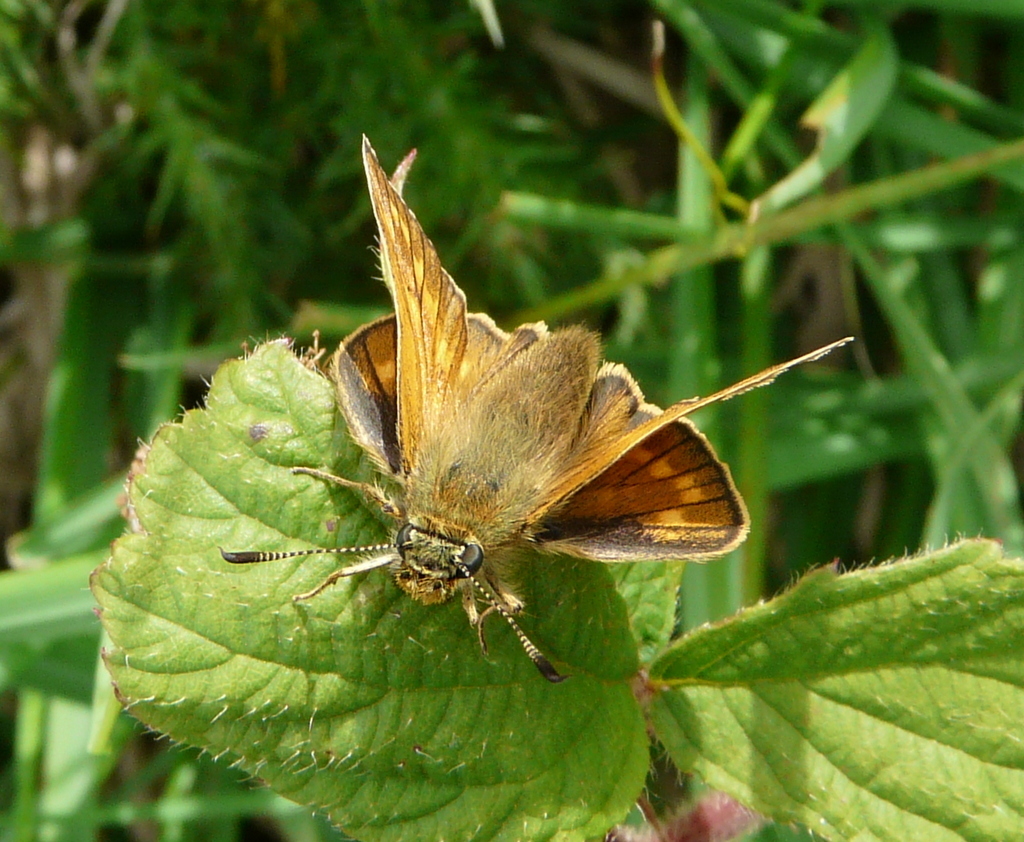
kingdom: Animalia
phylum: Arthropoda
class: Insecta
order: Lepidoptera
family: Hesperiidae
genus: Ochlodes
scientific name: Ochlodes venata
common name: Large skipper
